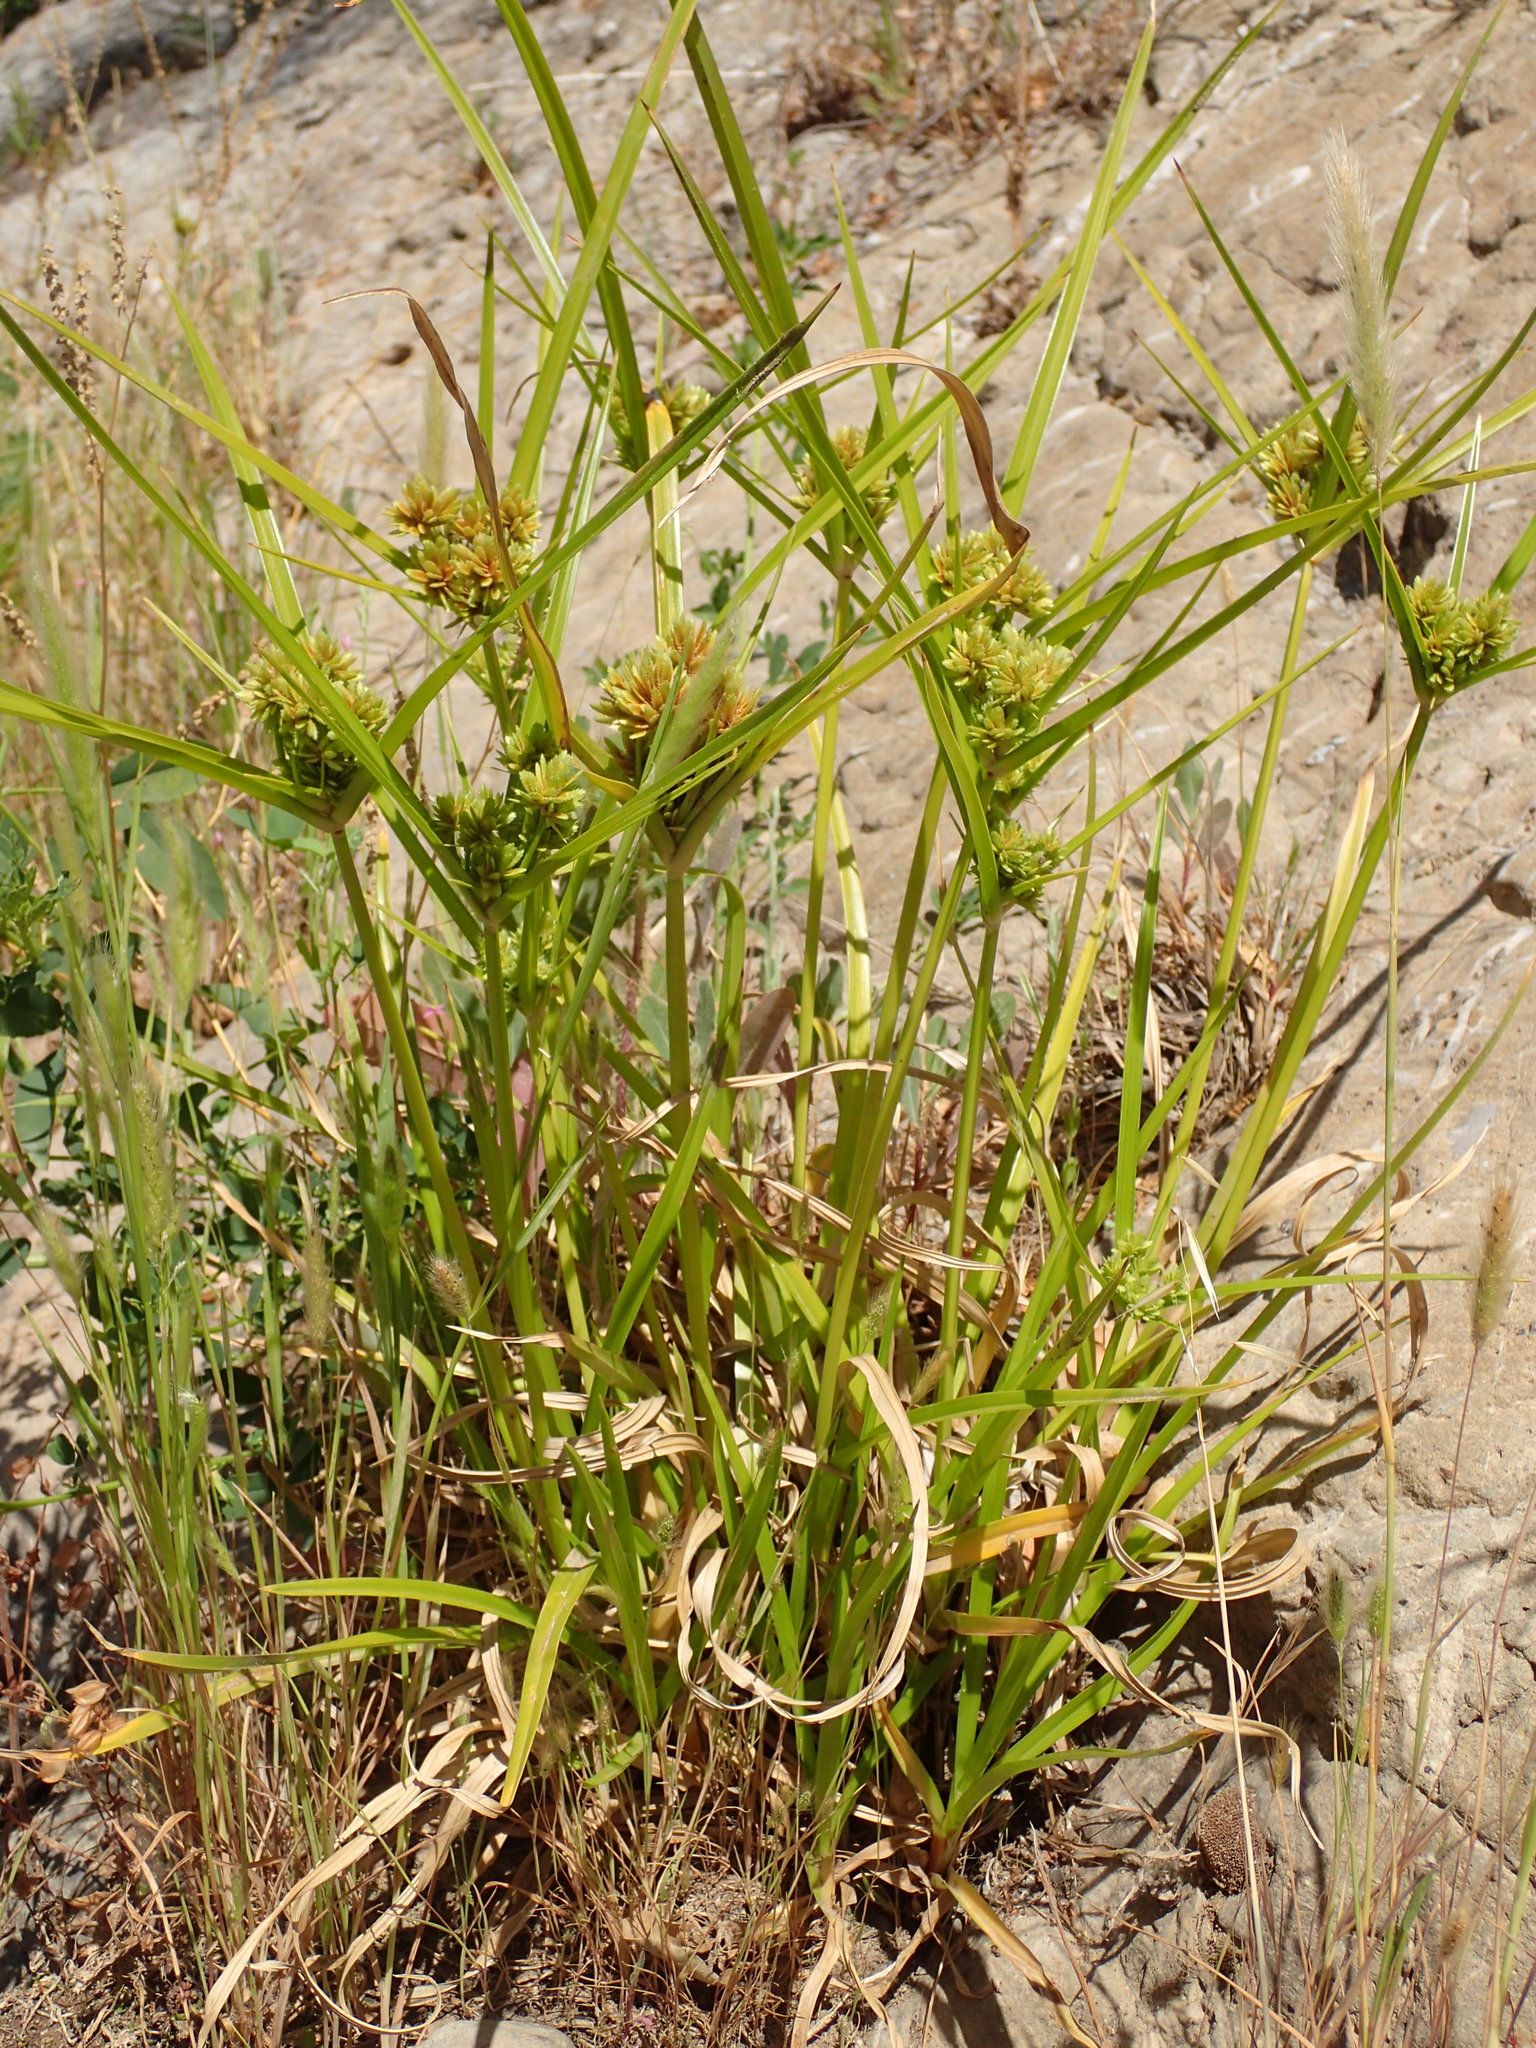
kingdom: Plantae
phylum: Tracheophyta
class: Liliopsida
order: Poales
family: Cyperaceae
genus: Cyperus
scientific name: Cyperus eragrostis
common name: Tall flatsedge
